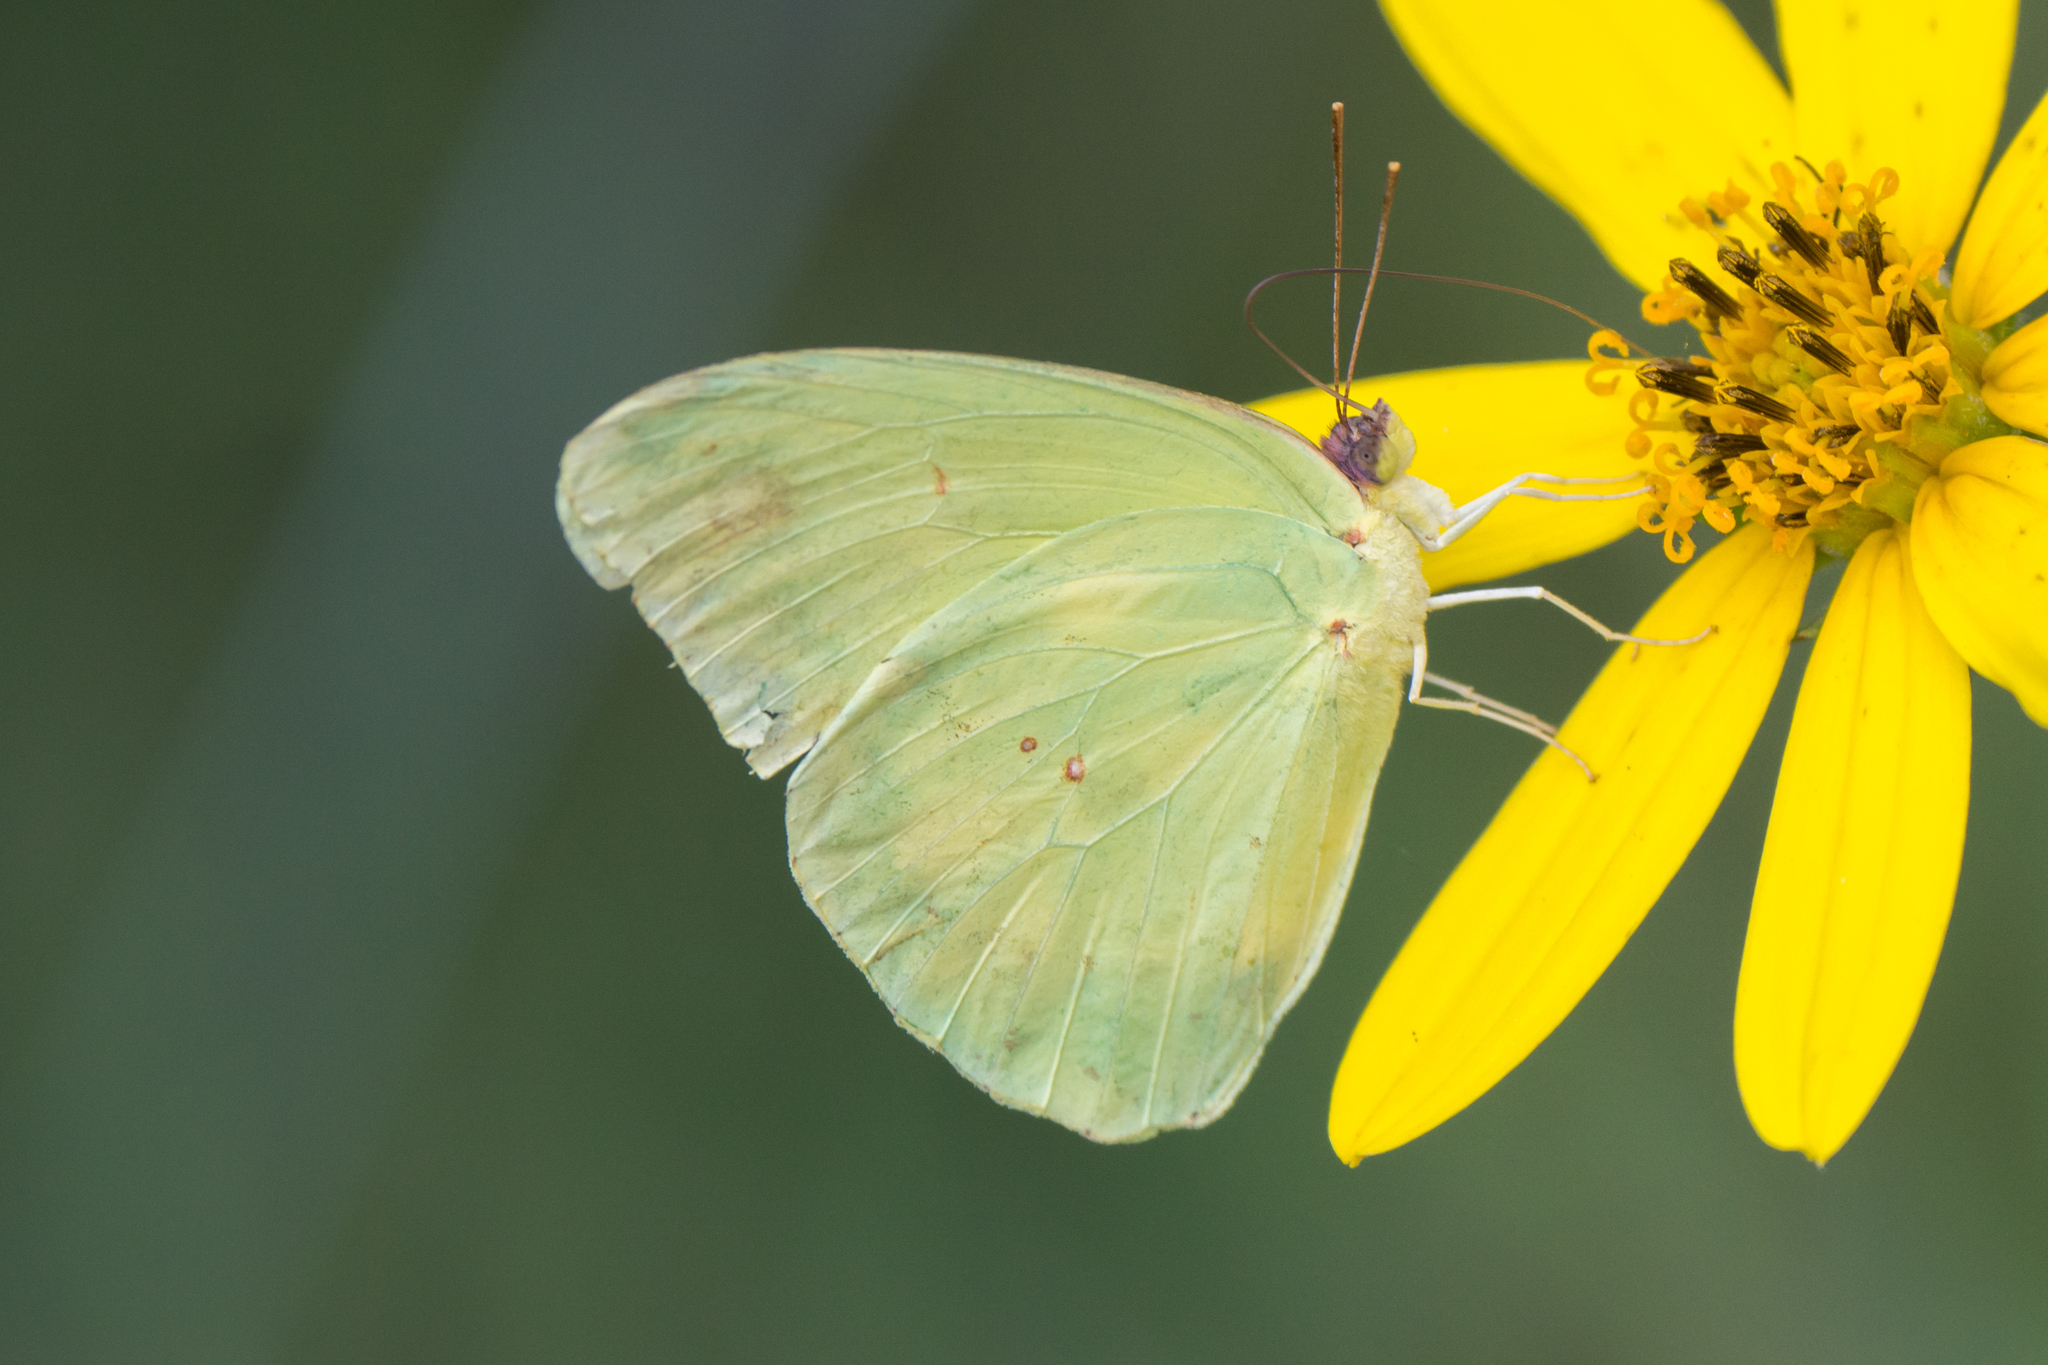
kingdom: Animalia
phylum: Arthropoda
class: Insecta
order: Lepidoptera
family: Pieridae
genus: Phoebis
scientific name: Phoebis sennae
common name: Cloudless sulphur
